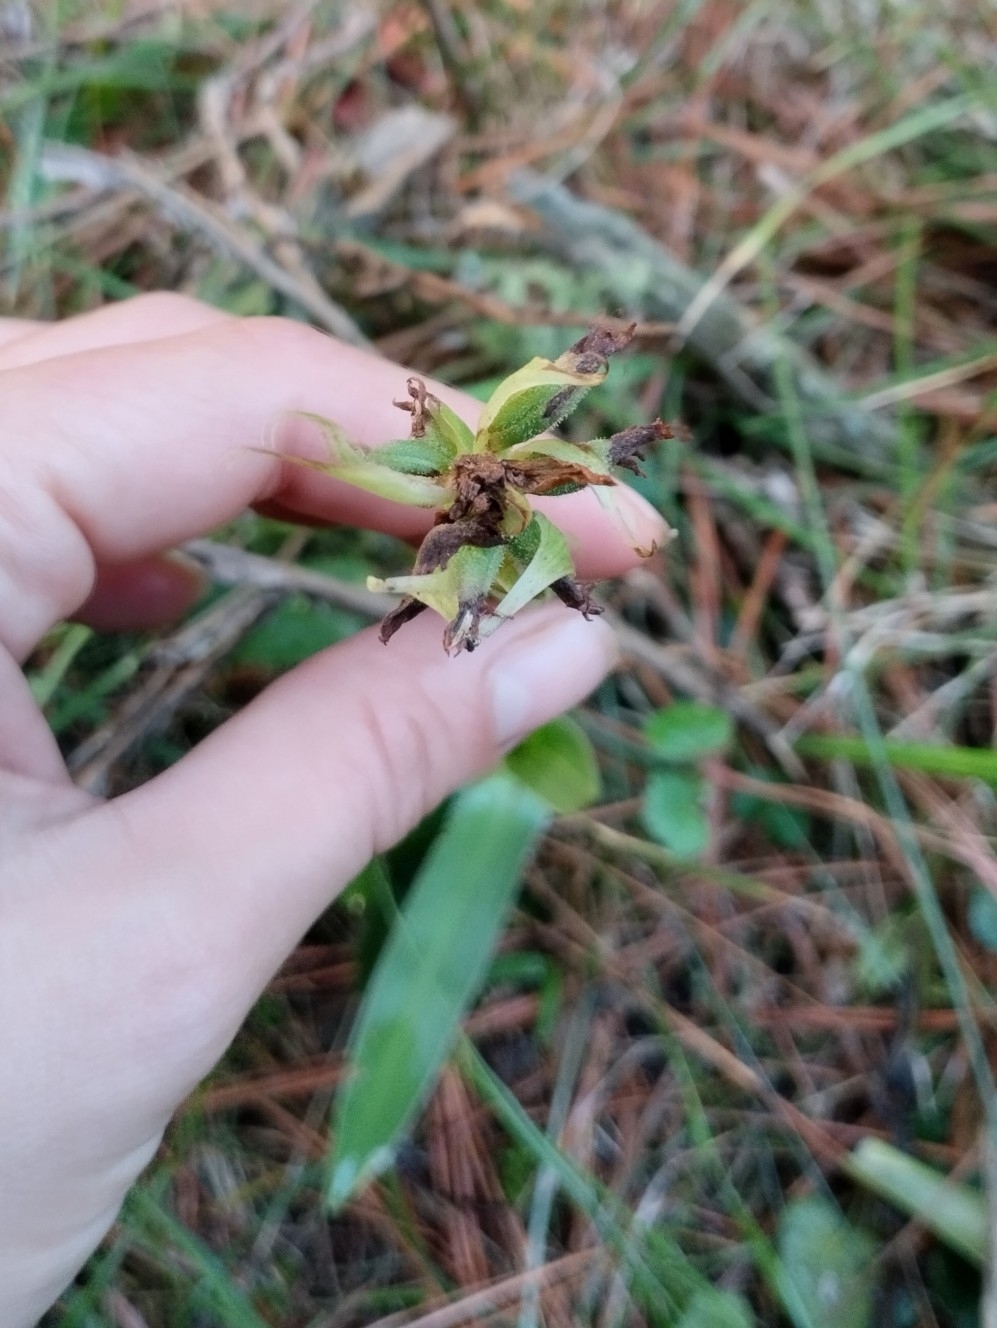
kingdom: Plantae
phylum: Tracheophyta
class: Liliopsida
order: Asparagales
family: Orchidaceae
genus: Chloraea
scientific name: Chloraea membranacea
